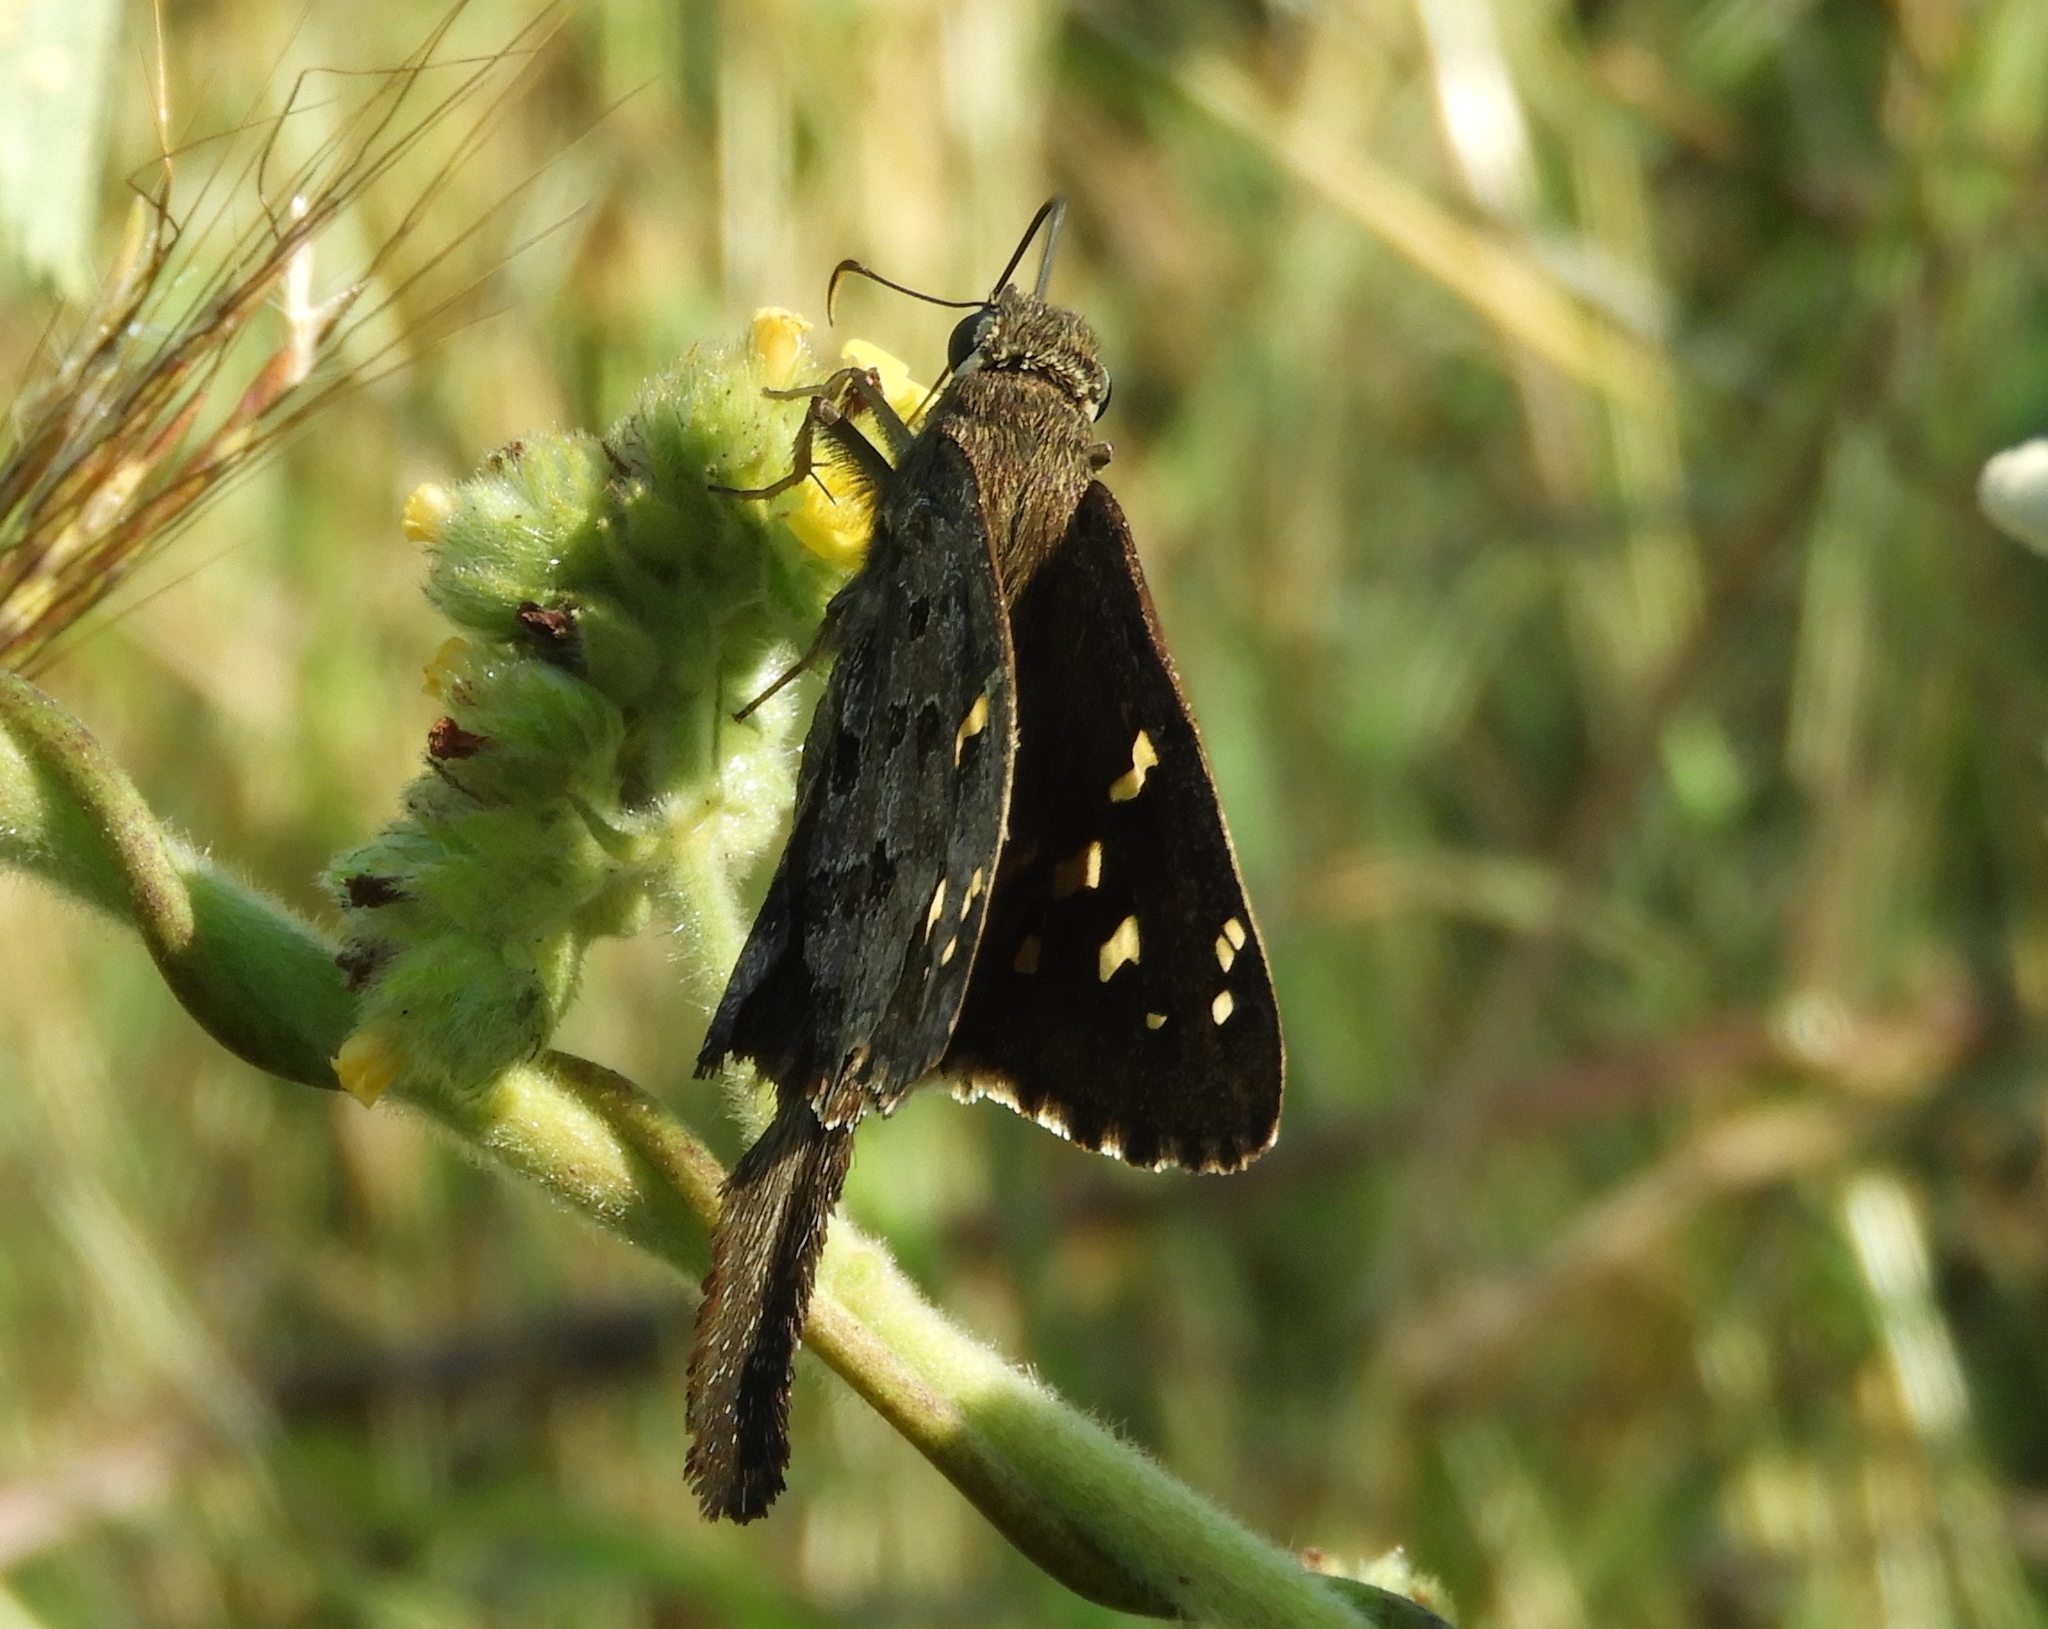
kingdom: Animalia
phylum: Arthropoda
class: Insecta
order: Lepidoptera
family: Hesperiidae
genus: Thorybes
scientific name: Thorybes
